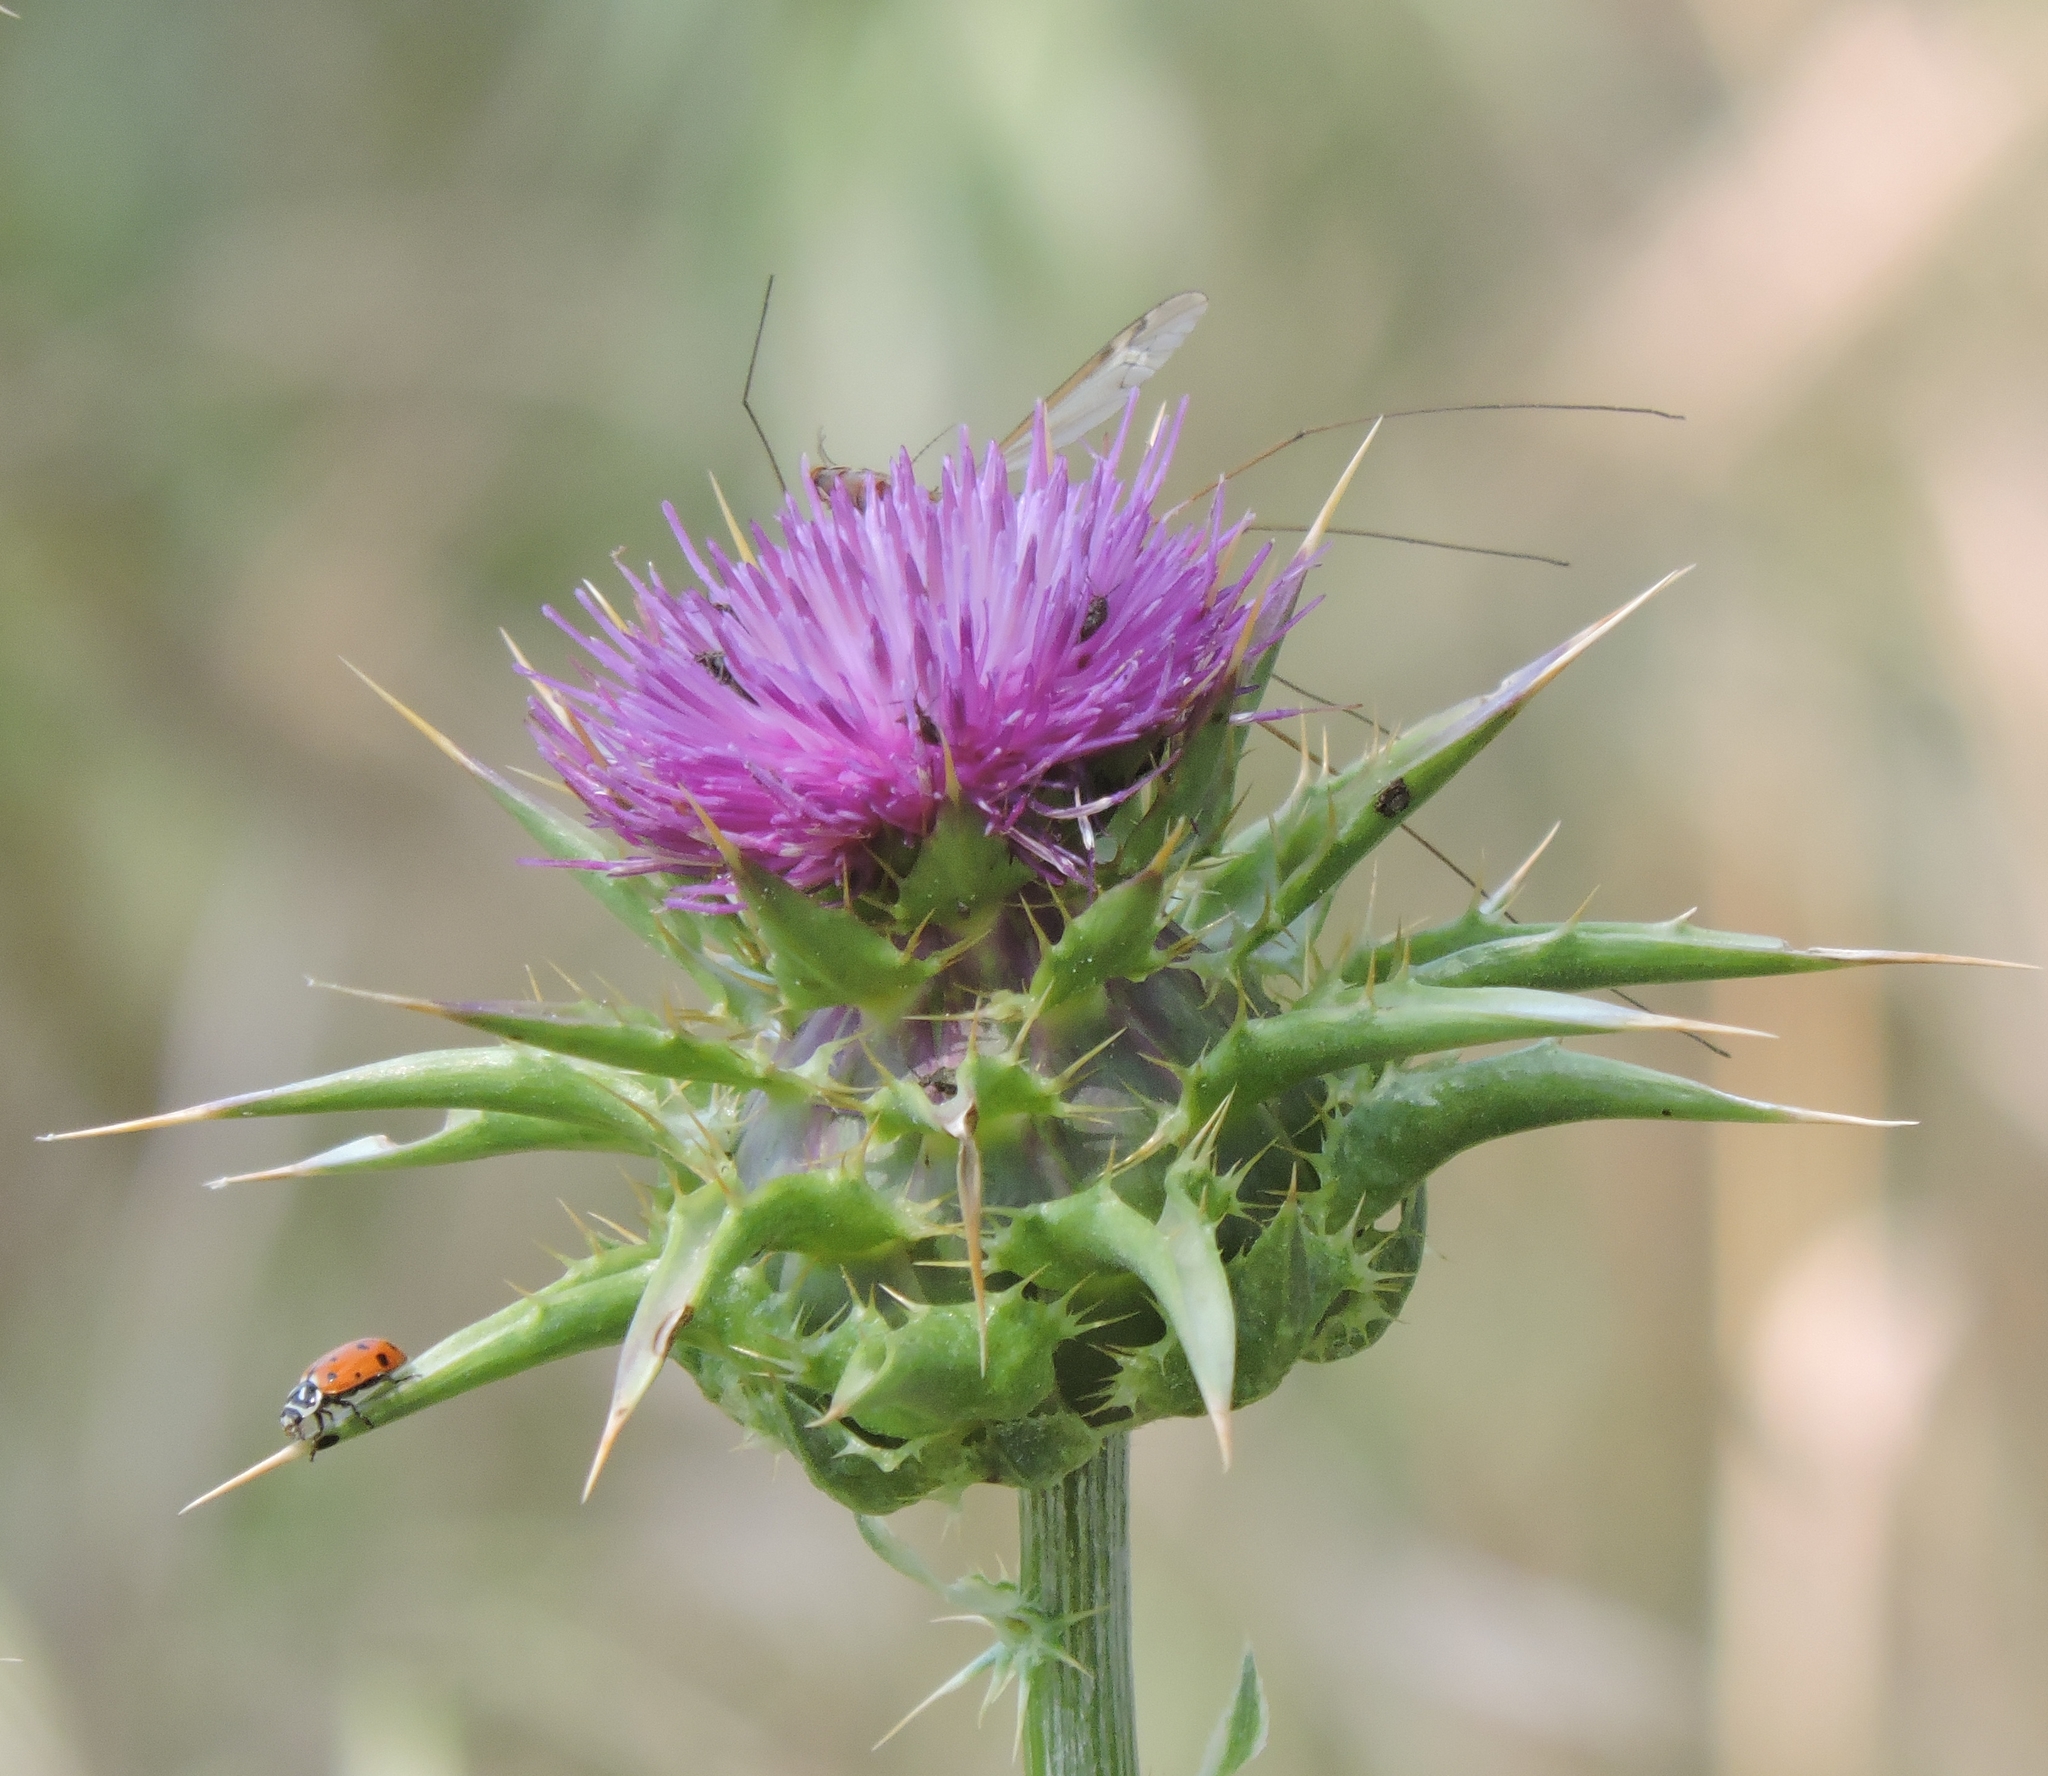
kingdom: Plantae
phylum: Tracheophyta
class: Magnoliopsida
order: Asterales
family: Asteraceae
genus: Silybum
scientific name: Silybum marianum
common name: Milk thistle
